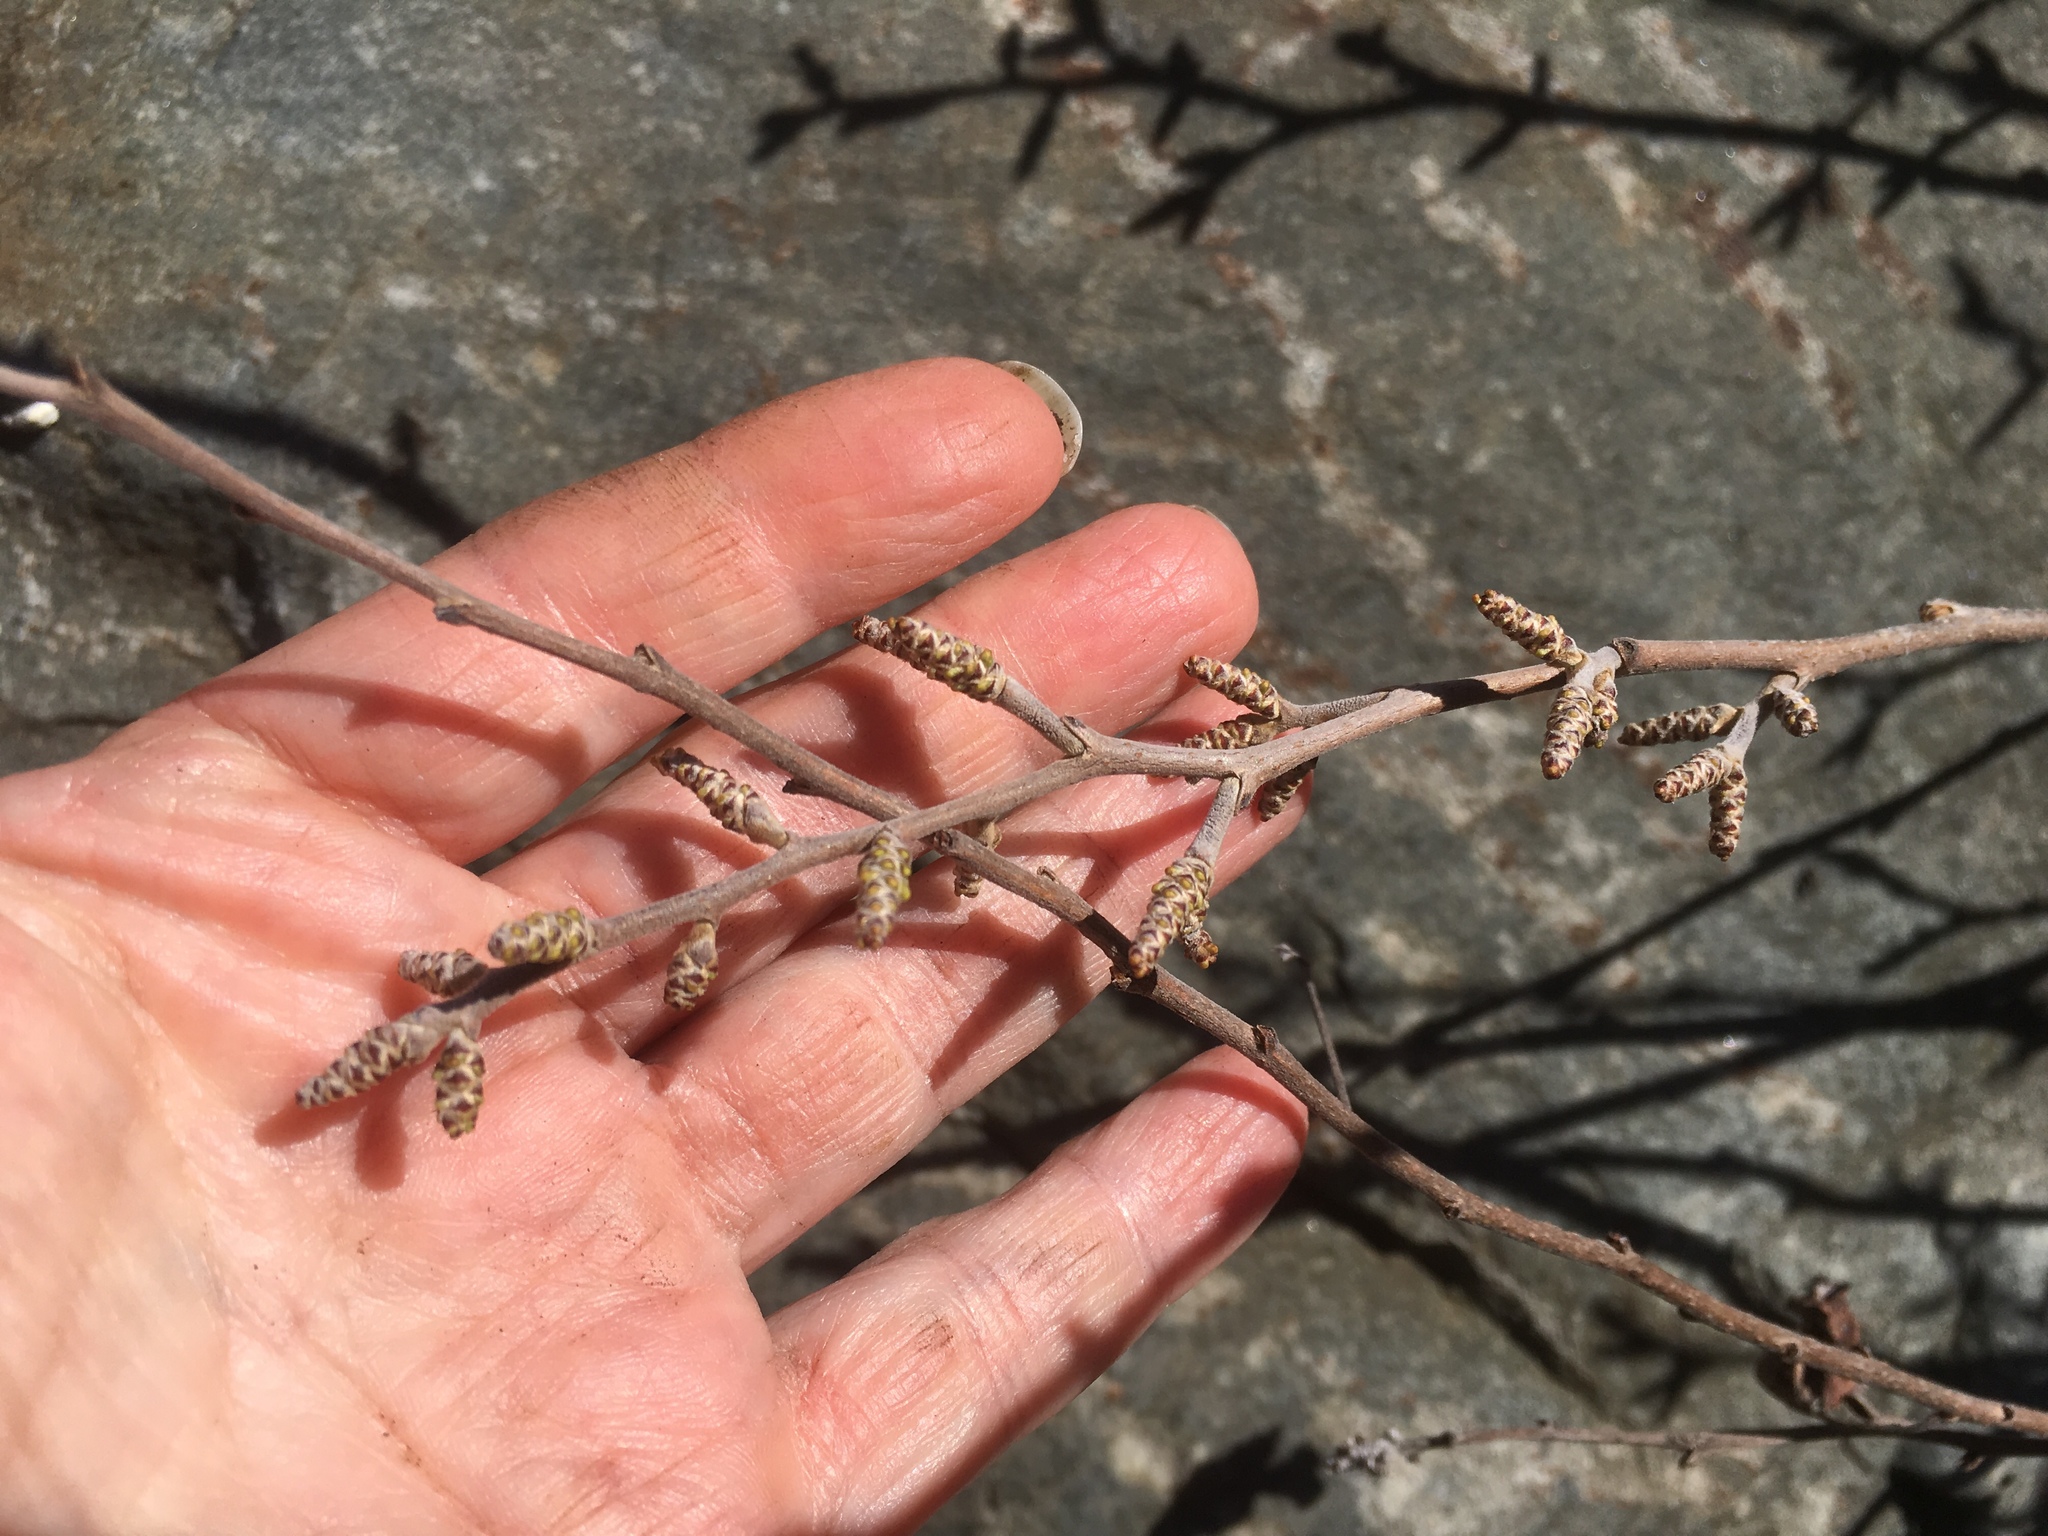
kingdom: Plantae
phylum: Tracheophyta
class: Magnoliopsida
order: Sapindales
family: Anacardiaceae
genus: Rhus
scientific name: Rhus aromatica
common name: Aromatic sumac
